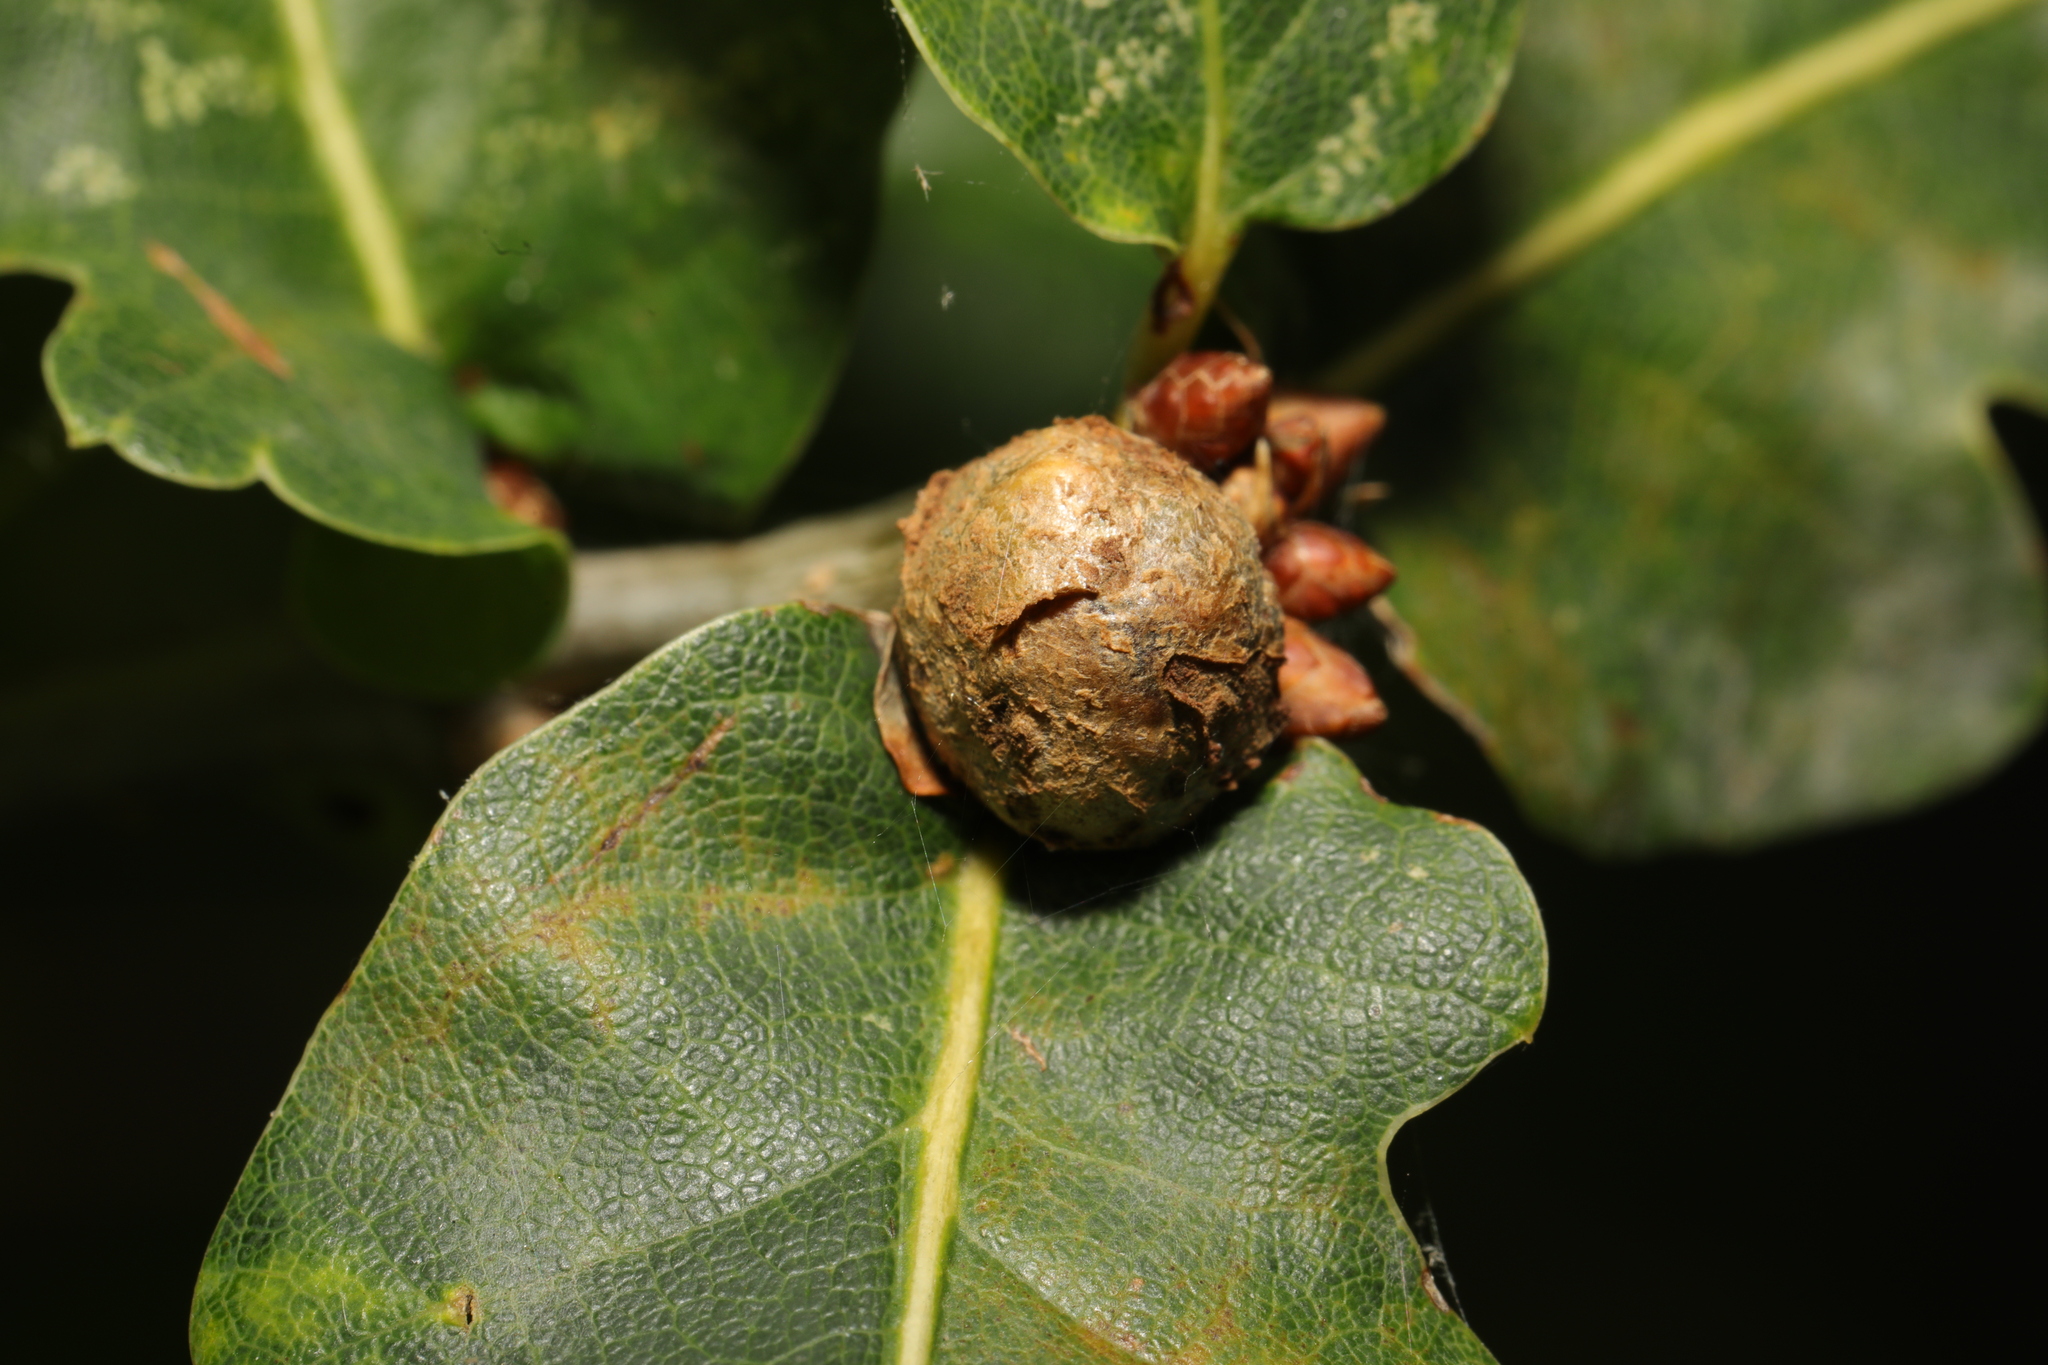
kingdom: Animalia
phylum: Arthropoda
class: Insecta
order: Hymenoptera
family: Cynipidae
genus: Andricus
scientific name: Andricus lignicolus
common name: Cola-nut gall
